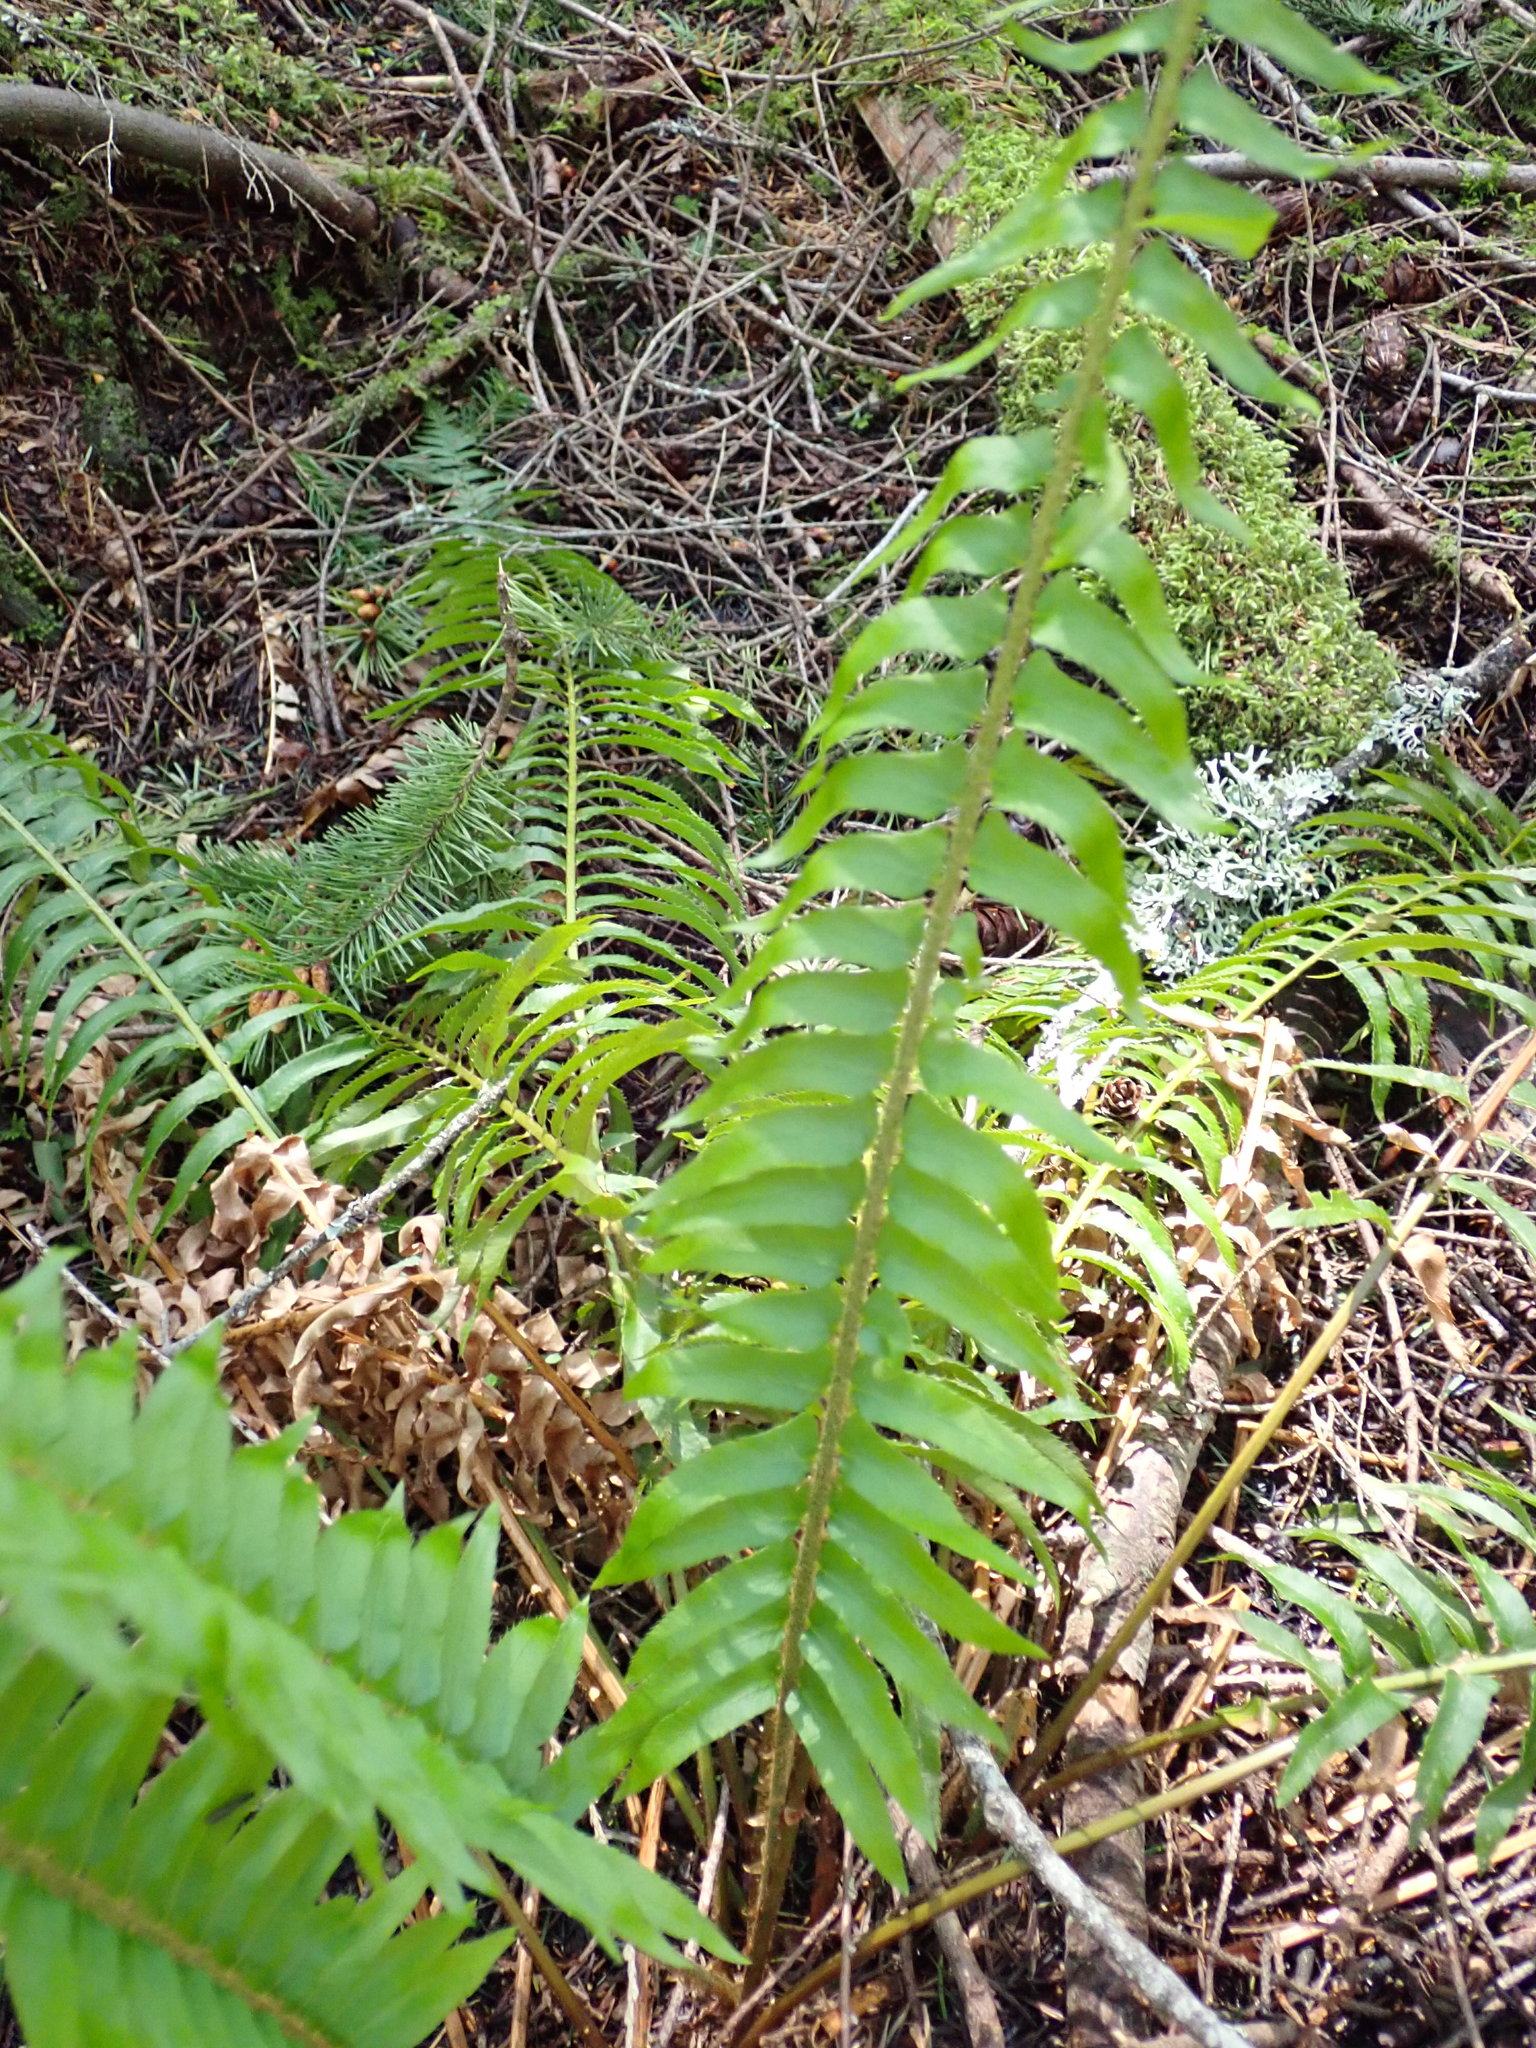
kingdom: Plantae
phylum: Tracheophyta
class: Polypodiopsida
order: Polypodiales
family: Dryopteridaceae
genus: Polystichum
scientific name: Polystichum munitum
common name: Western sword-fern
